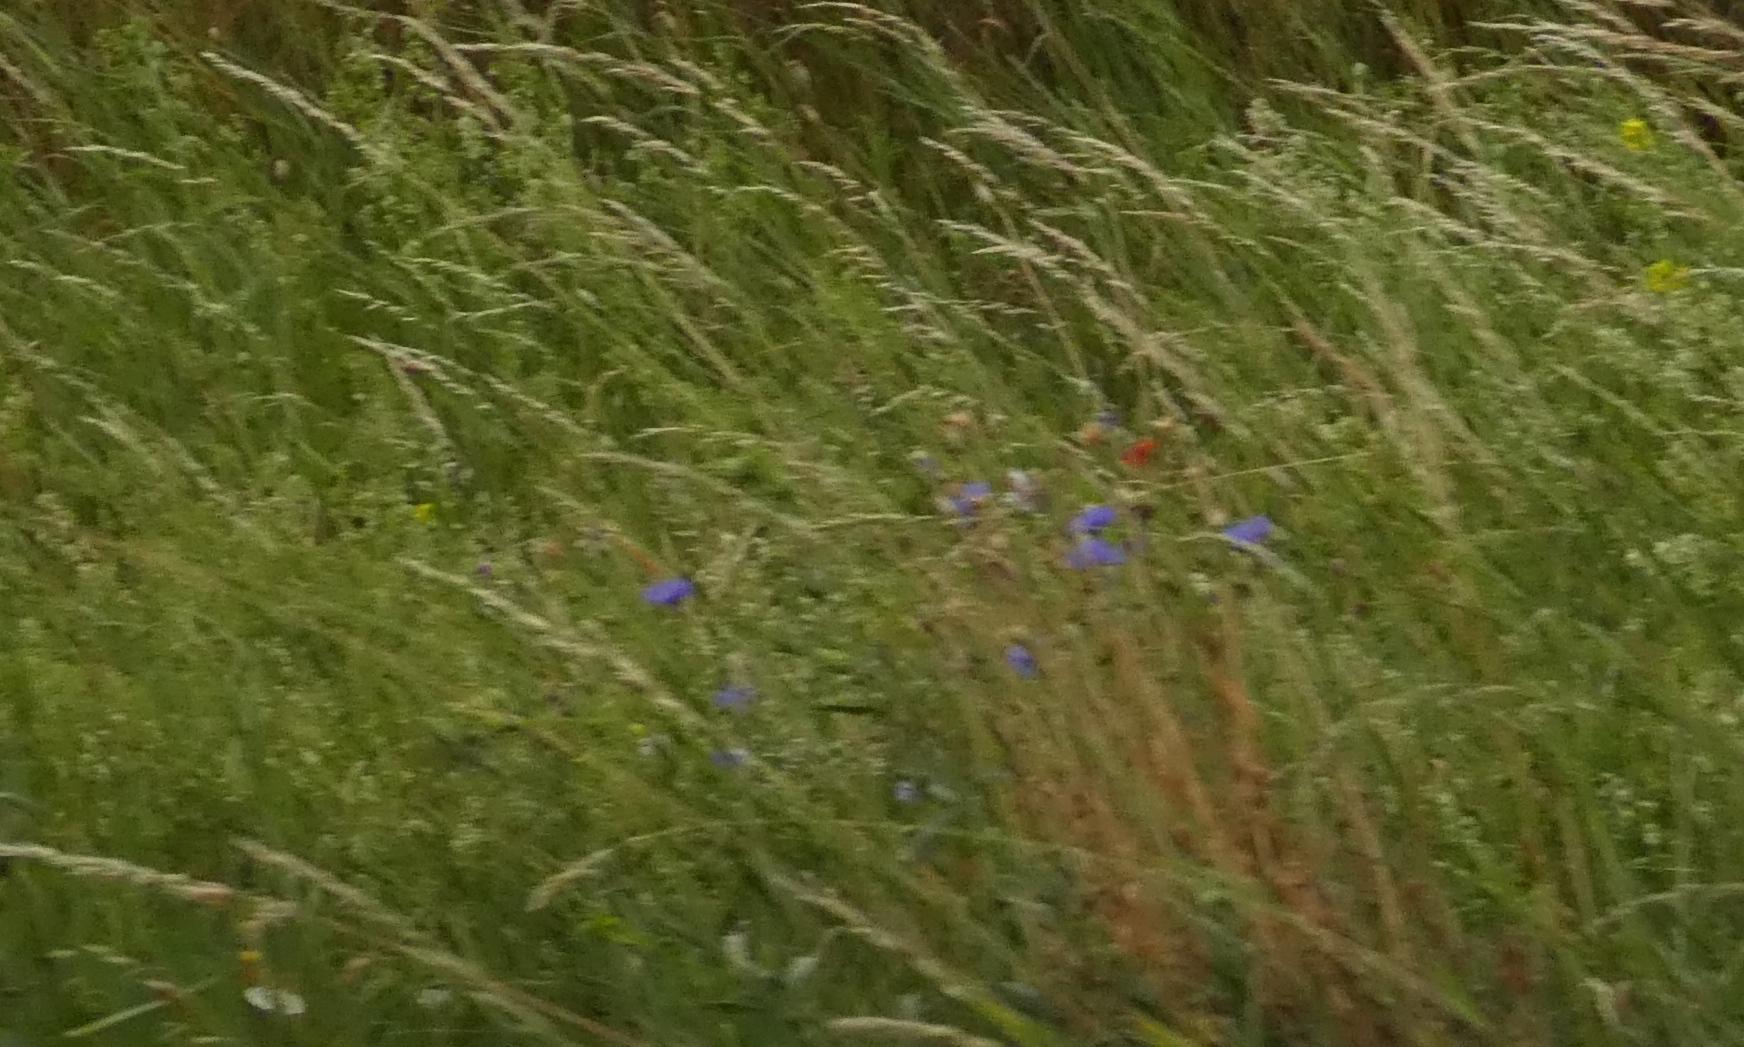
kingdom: Plantae
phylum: Tracheophyta
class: Magnoliopsida
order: Asterales
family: Asteraceae
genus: Centaurea
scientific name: Centaurea cyanus
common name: Cornflower
